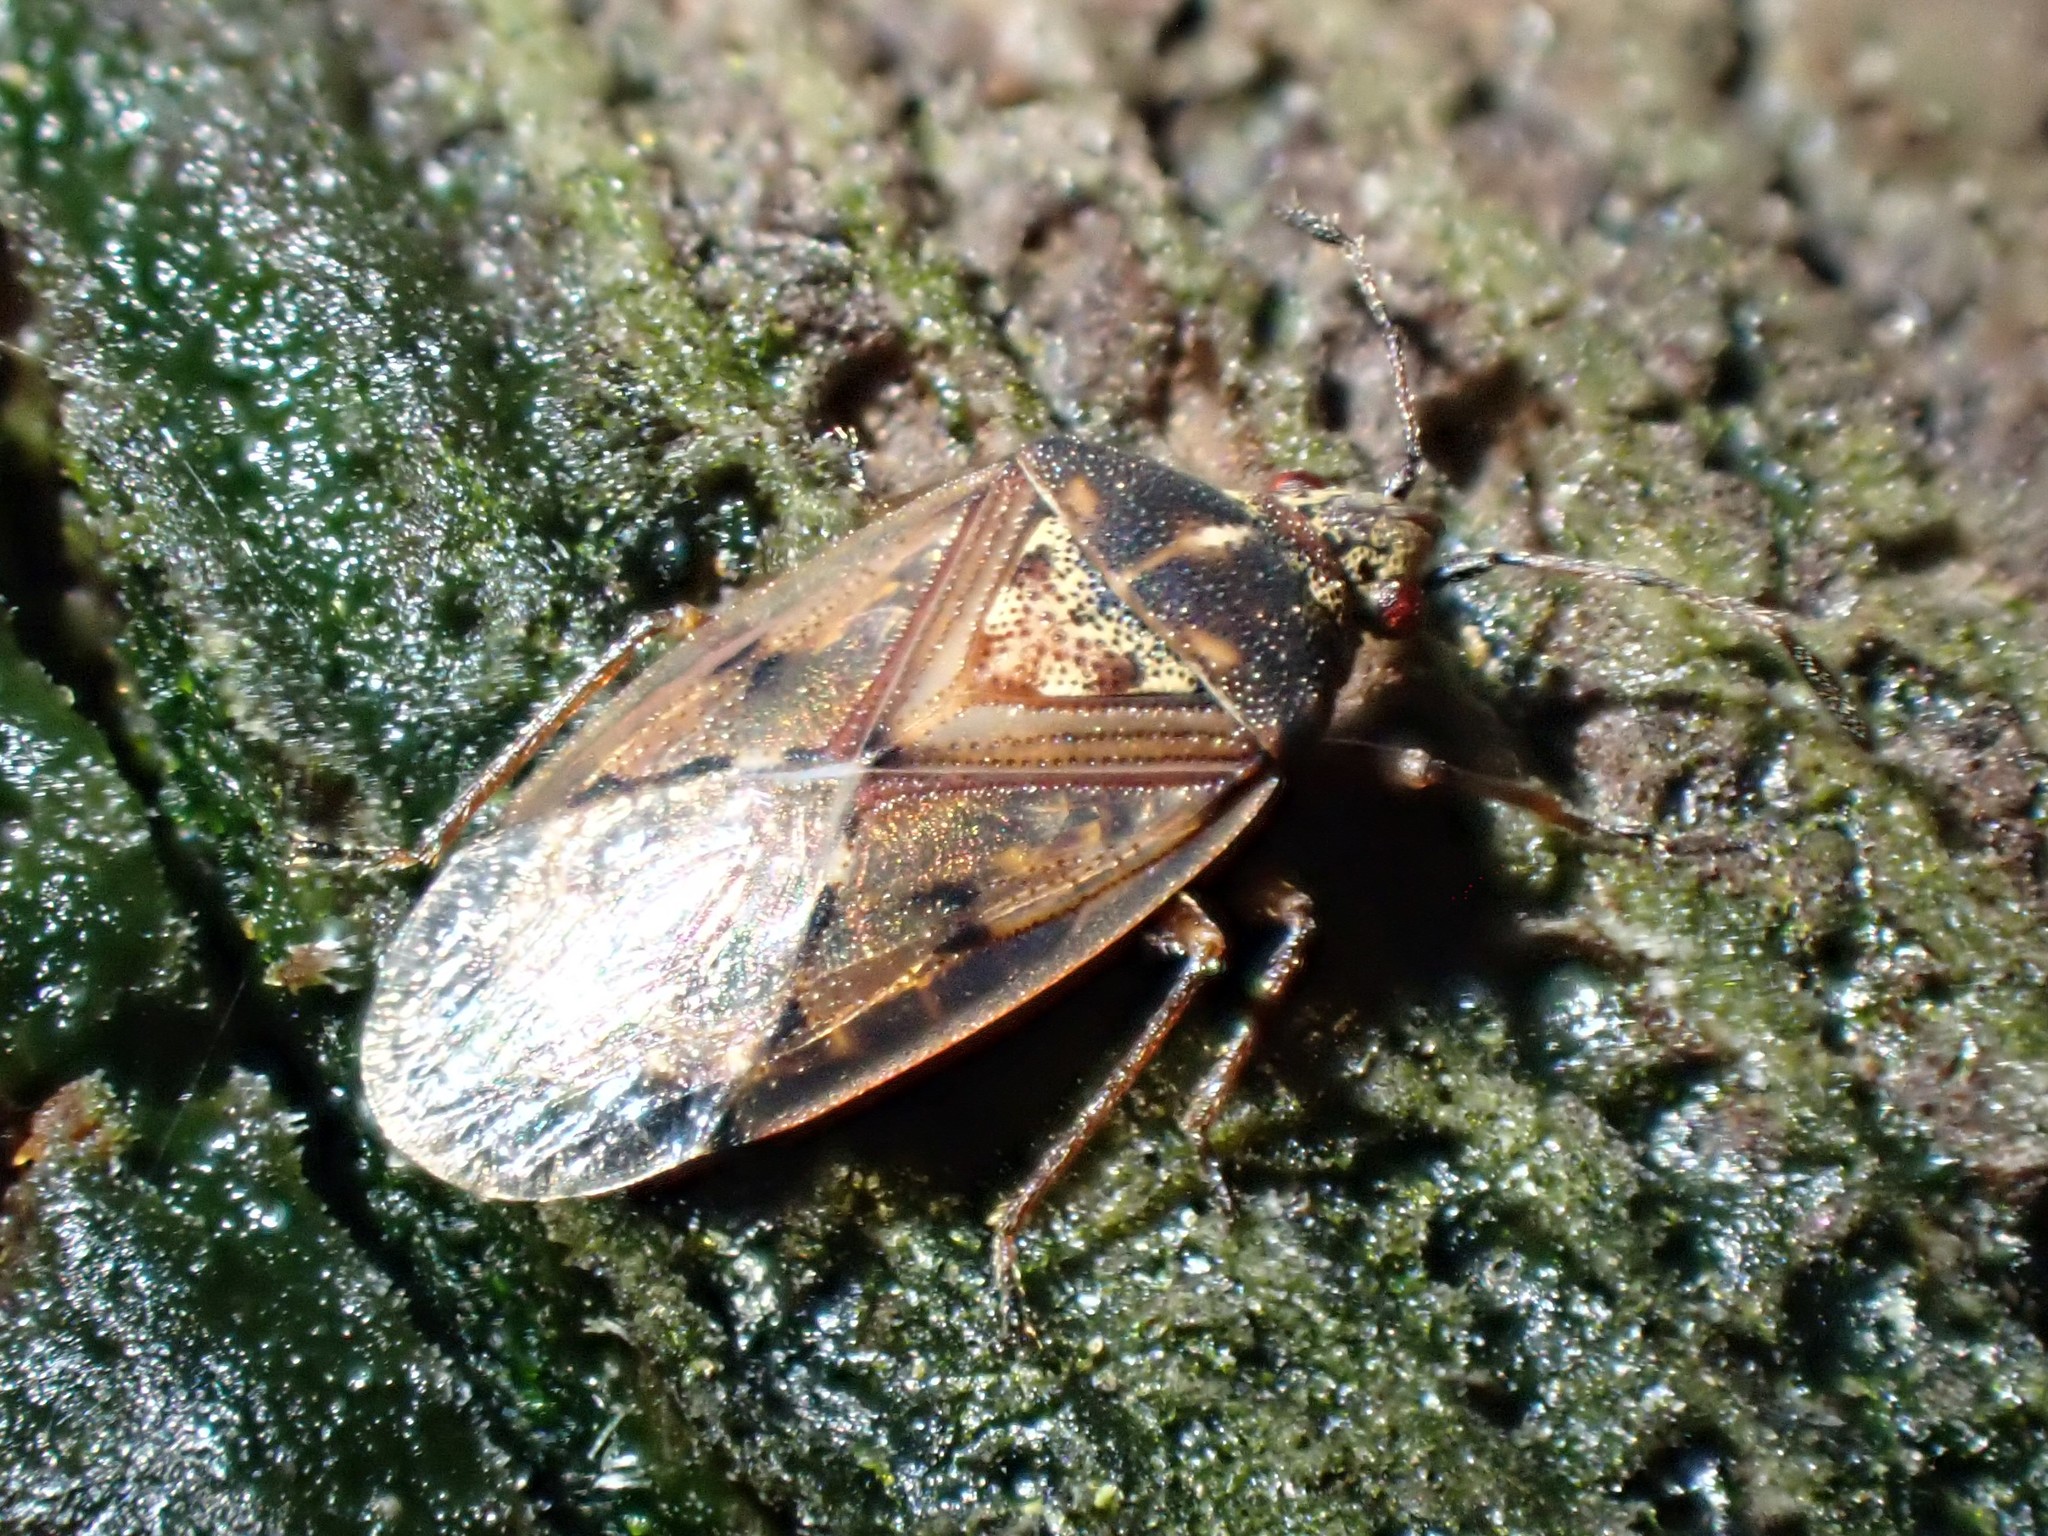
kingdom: Animalia
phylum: Arthropoda
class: Insecta
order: Hemiptera
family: Lygaeidae
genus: Kleidocerys
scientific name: Kleidocerys resedae
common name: Birch catkin bug
